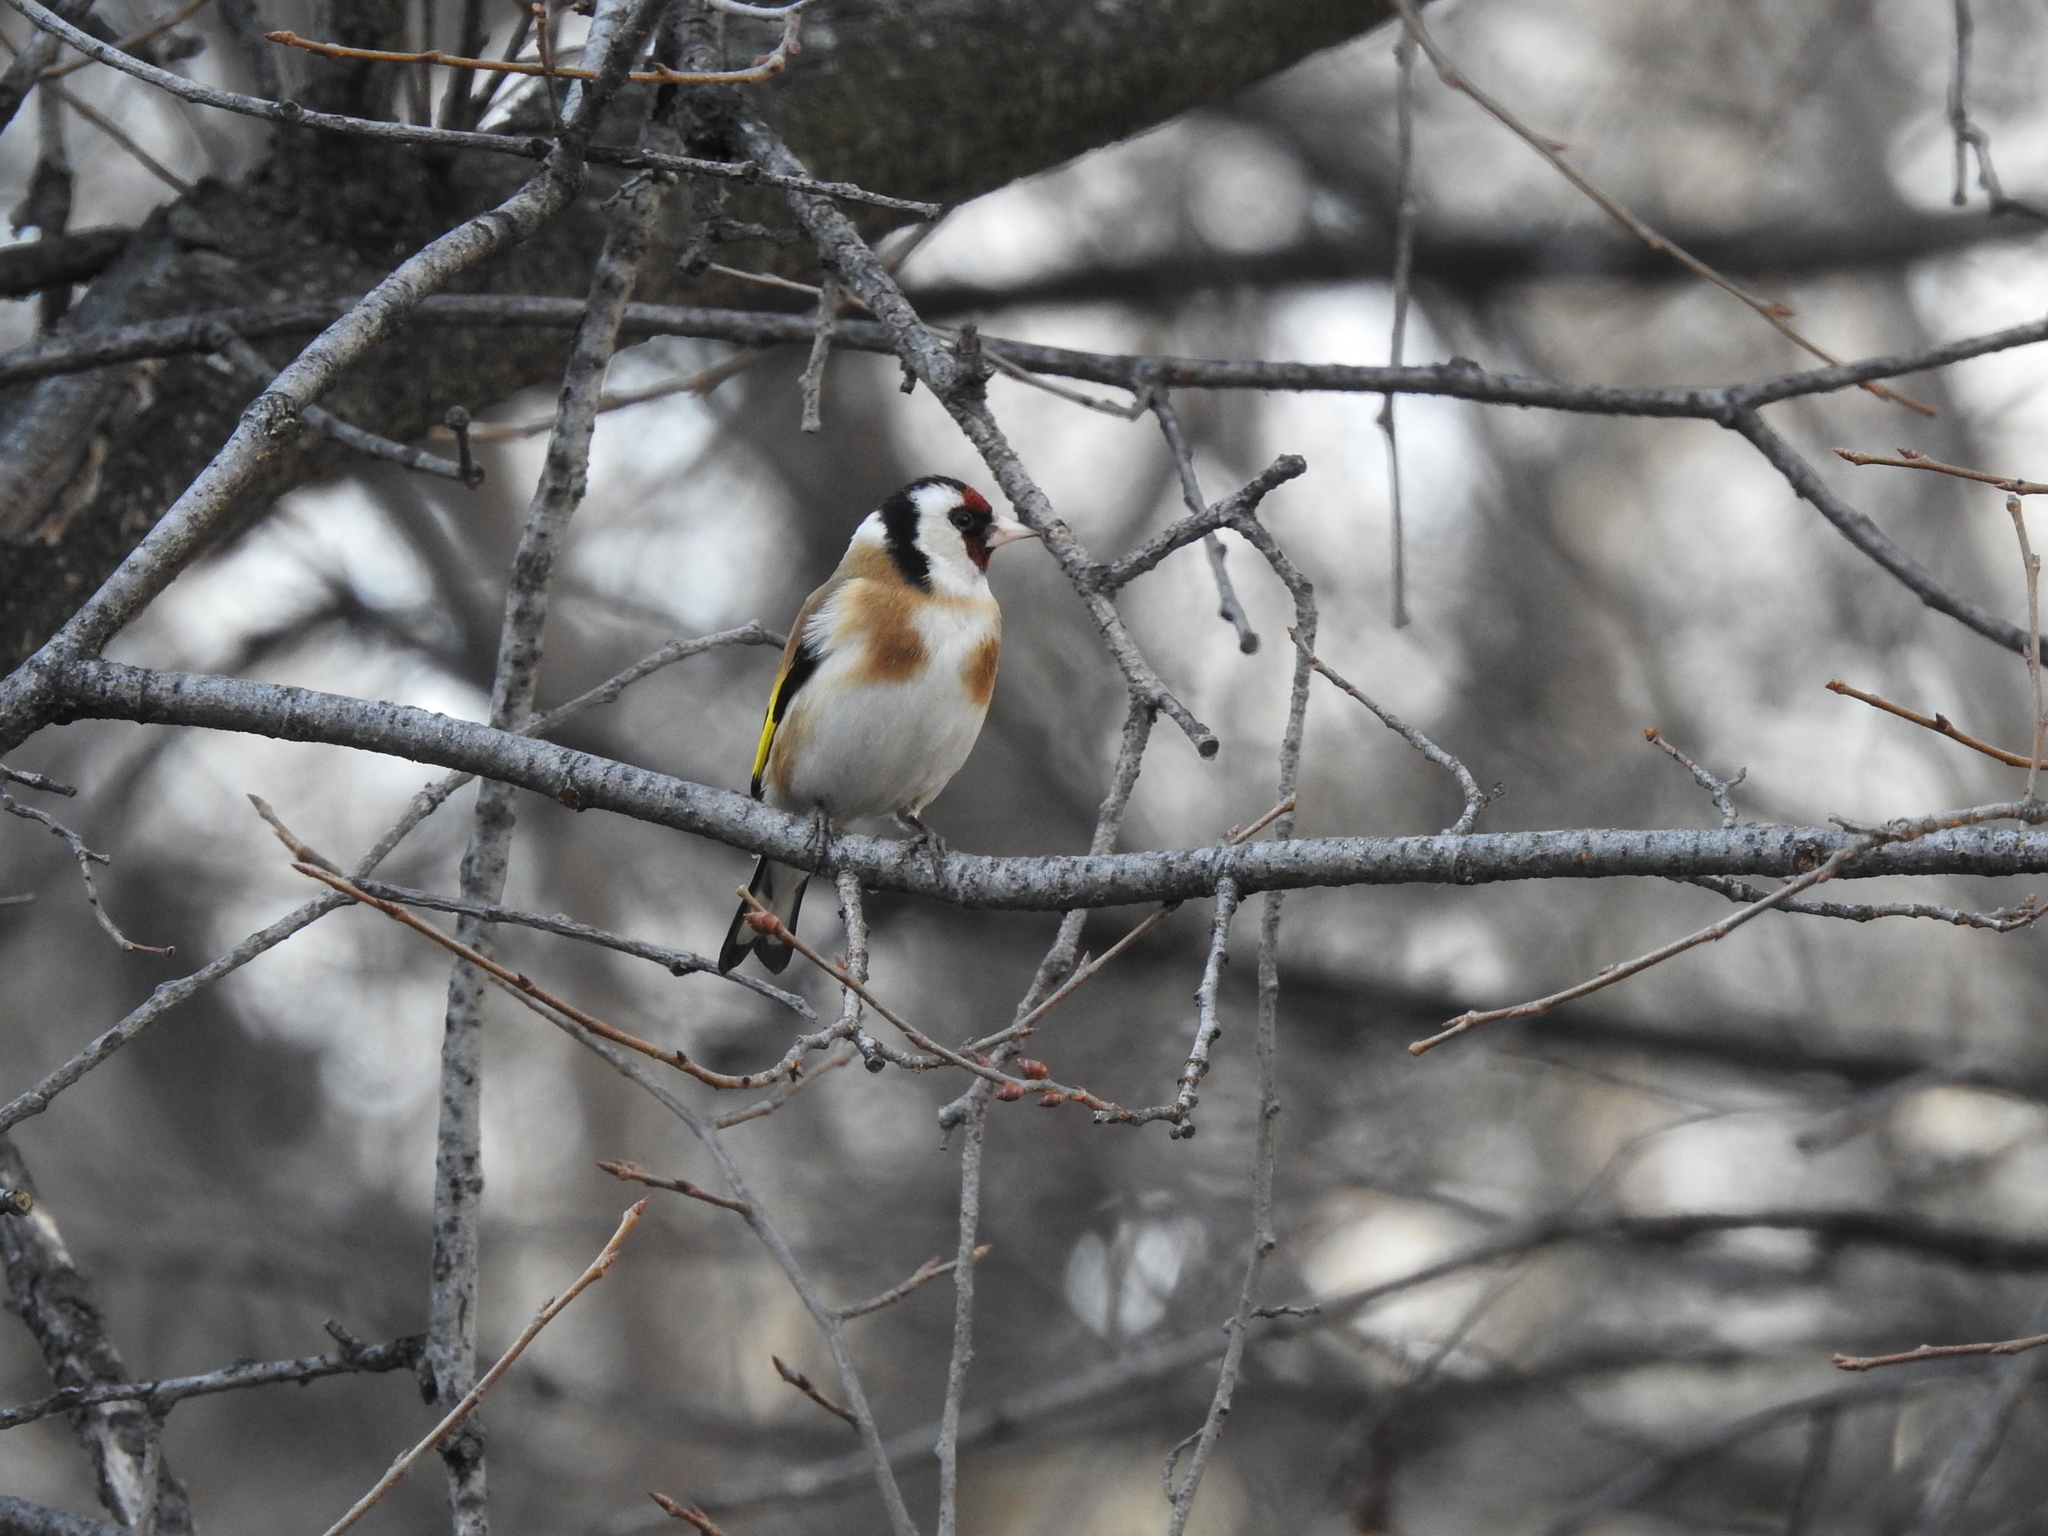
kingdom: Animalia
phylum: Chordata
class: Aves
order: Passeriformes
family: Fringillidae
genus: Carduelis
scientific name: Carduelis carduelis
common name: European goldfinch
